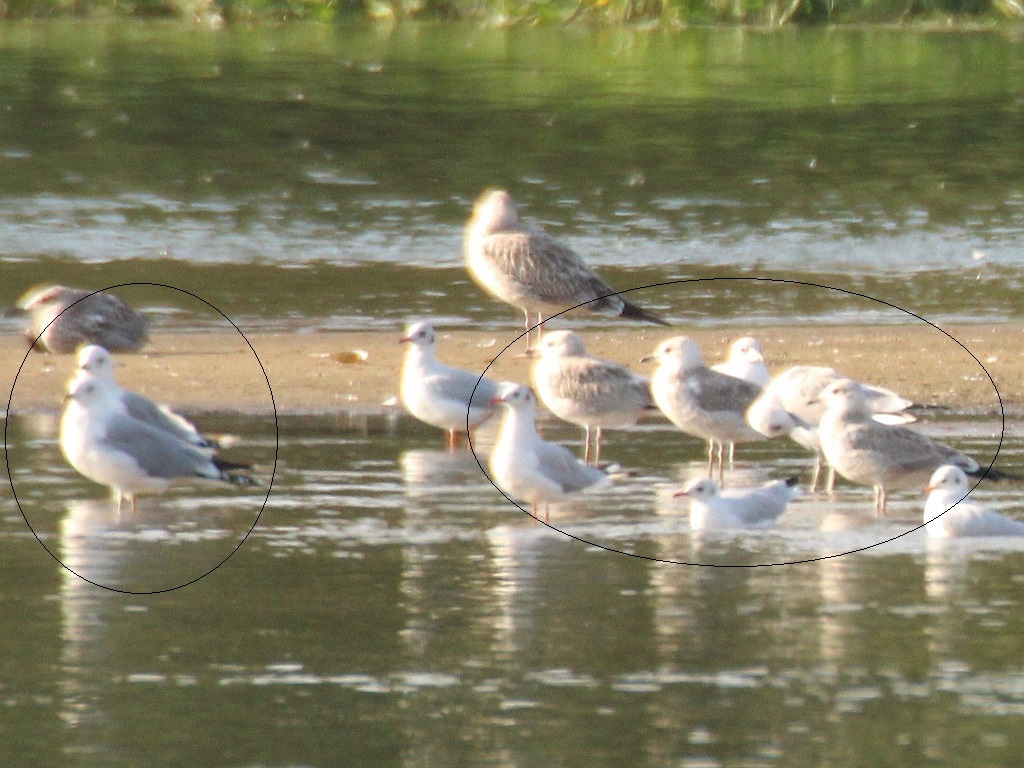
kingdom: Animalia
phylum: Chordata
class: Aves
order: Charadriiformes
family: Laridae
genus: Larus
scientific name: Larus canus
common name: Mew gull
